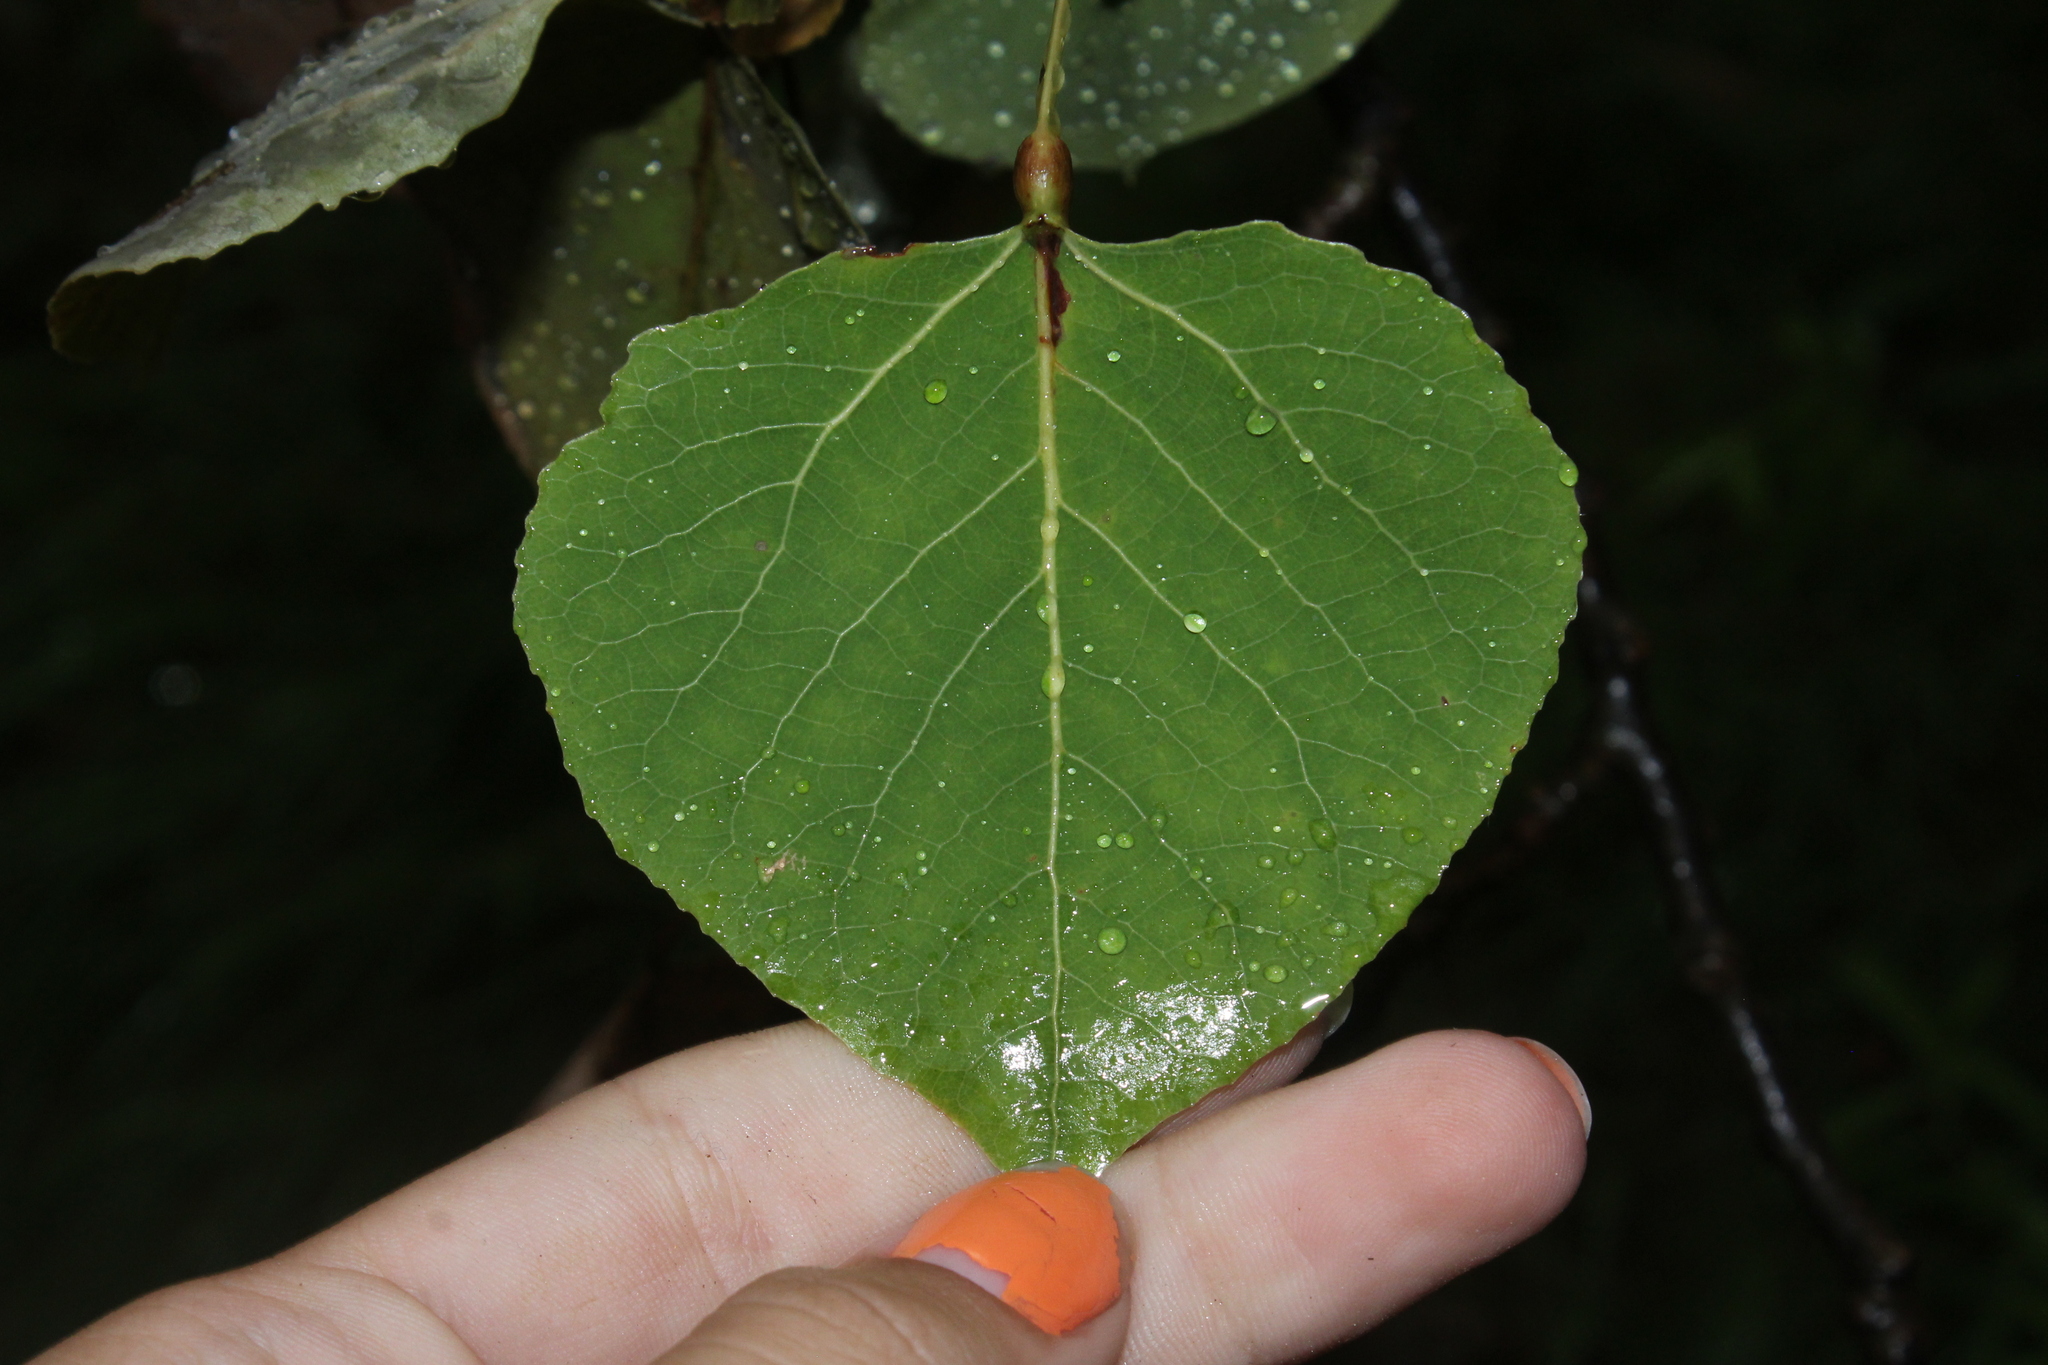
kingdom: Plantae
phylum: Tracheophyta
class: Magnoliopsida
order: Malpighiales
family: Salicaceae
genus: Populus
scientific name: Populus tremuloides
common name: Quaking aspen
